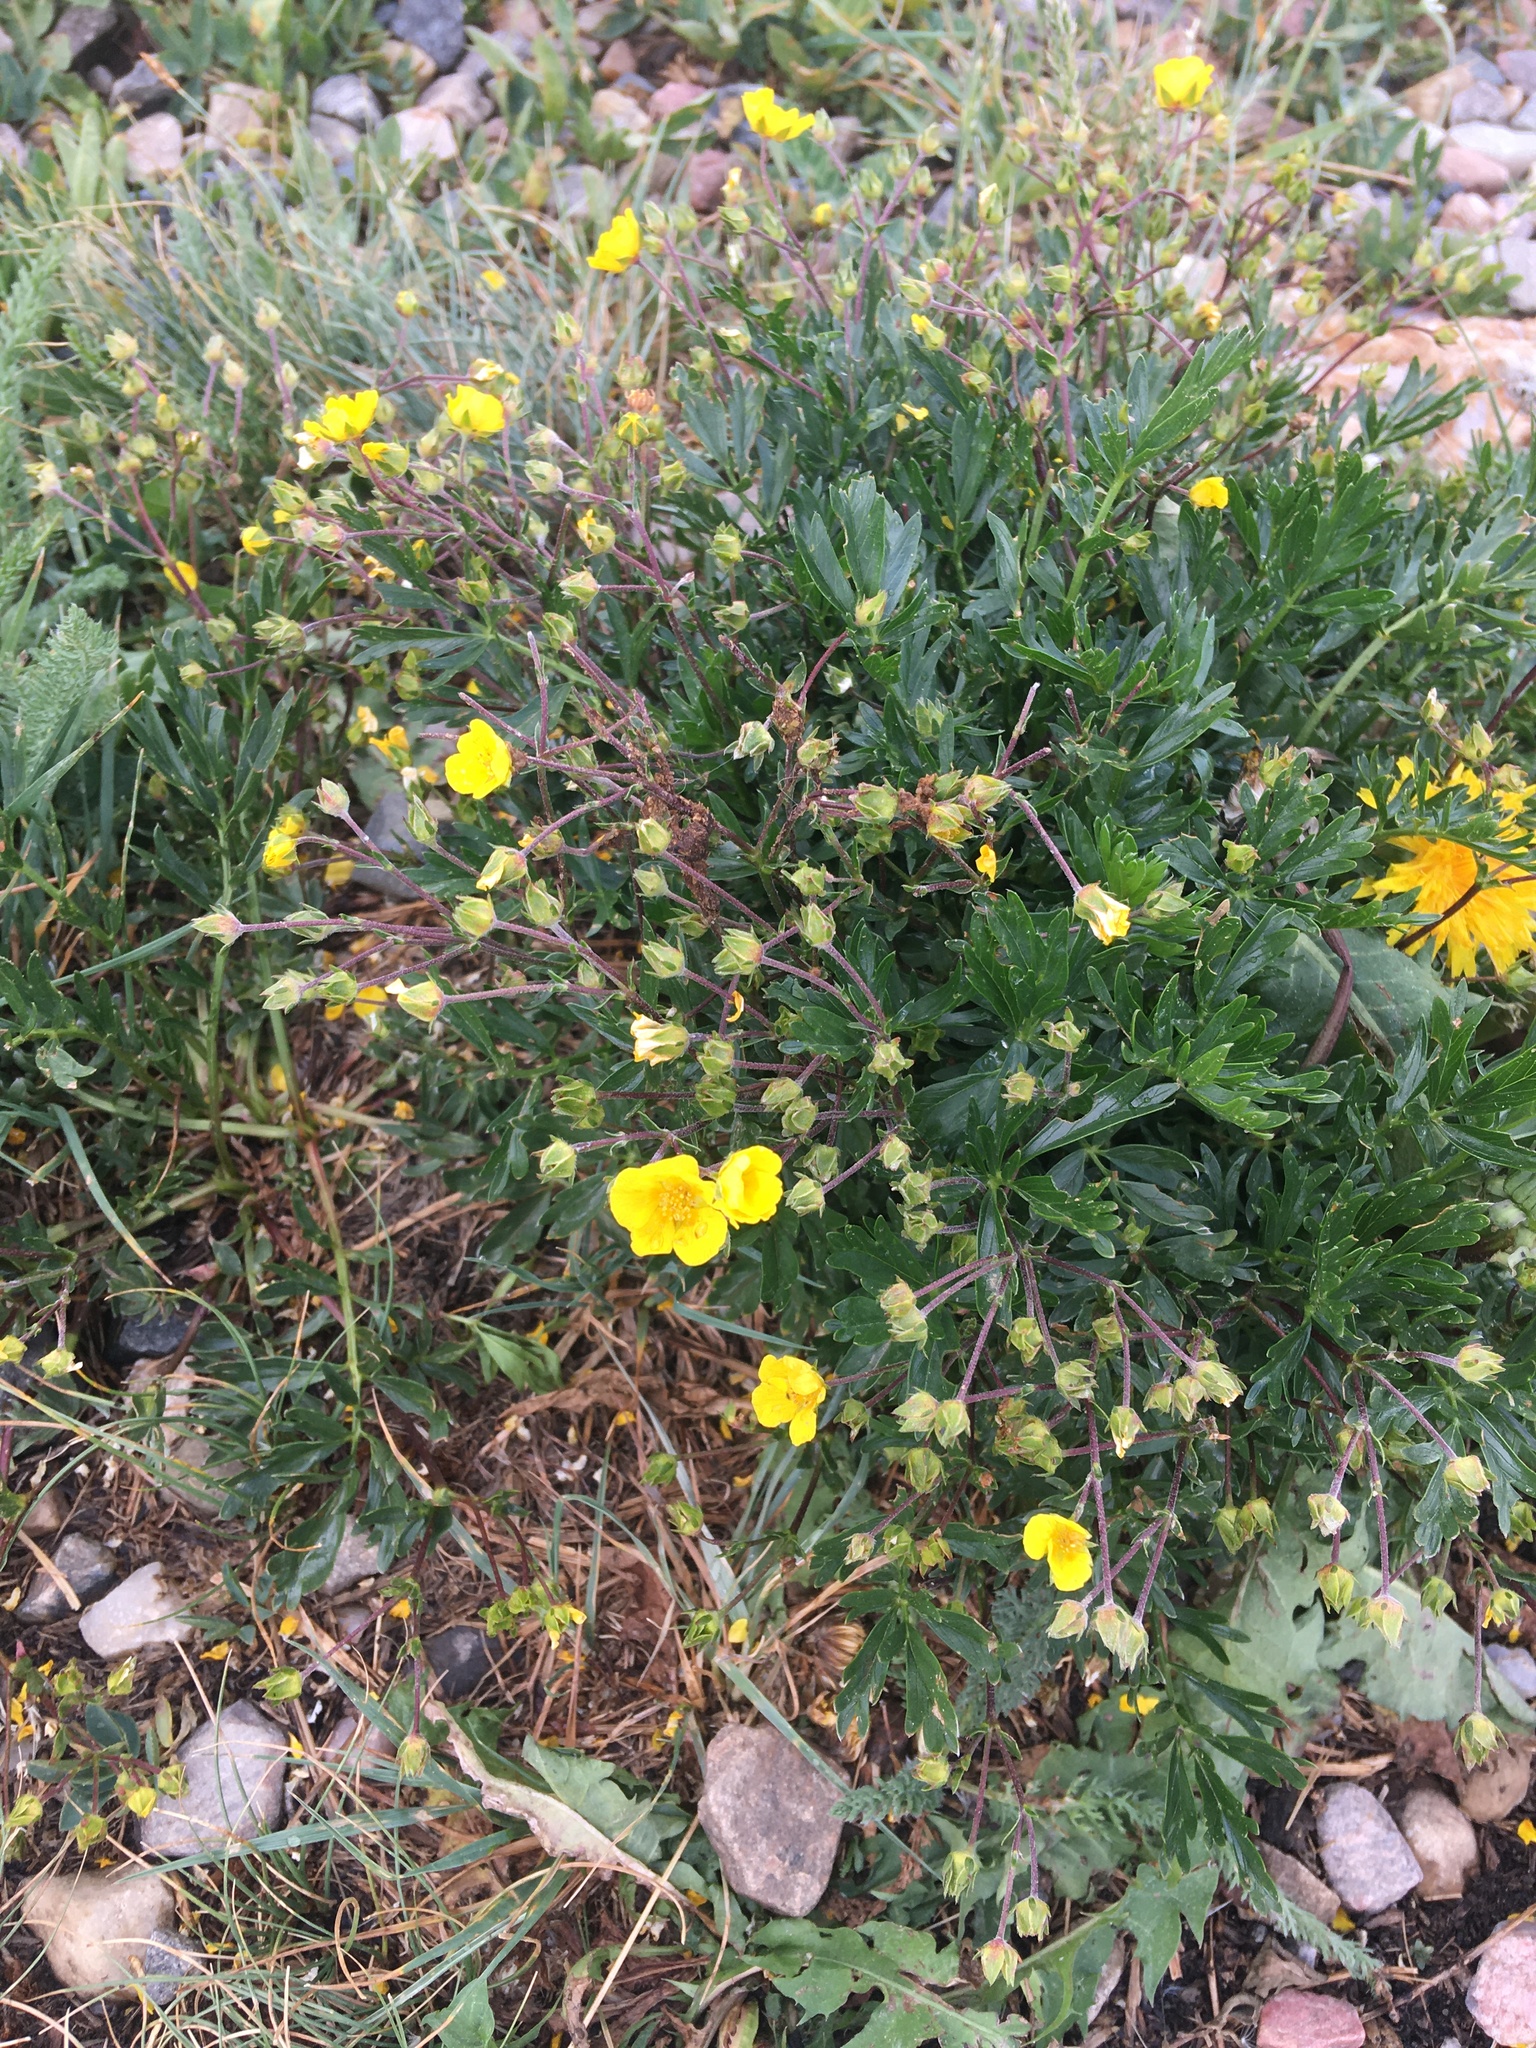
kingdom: Plantae
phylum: Tracheophyta
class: Magnoliopsida
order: Rosales
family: Rosaceae
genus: Geum
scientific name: Geum rossii
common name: Alpine avens
